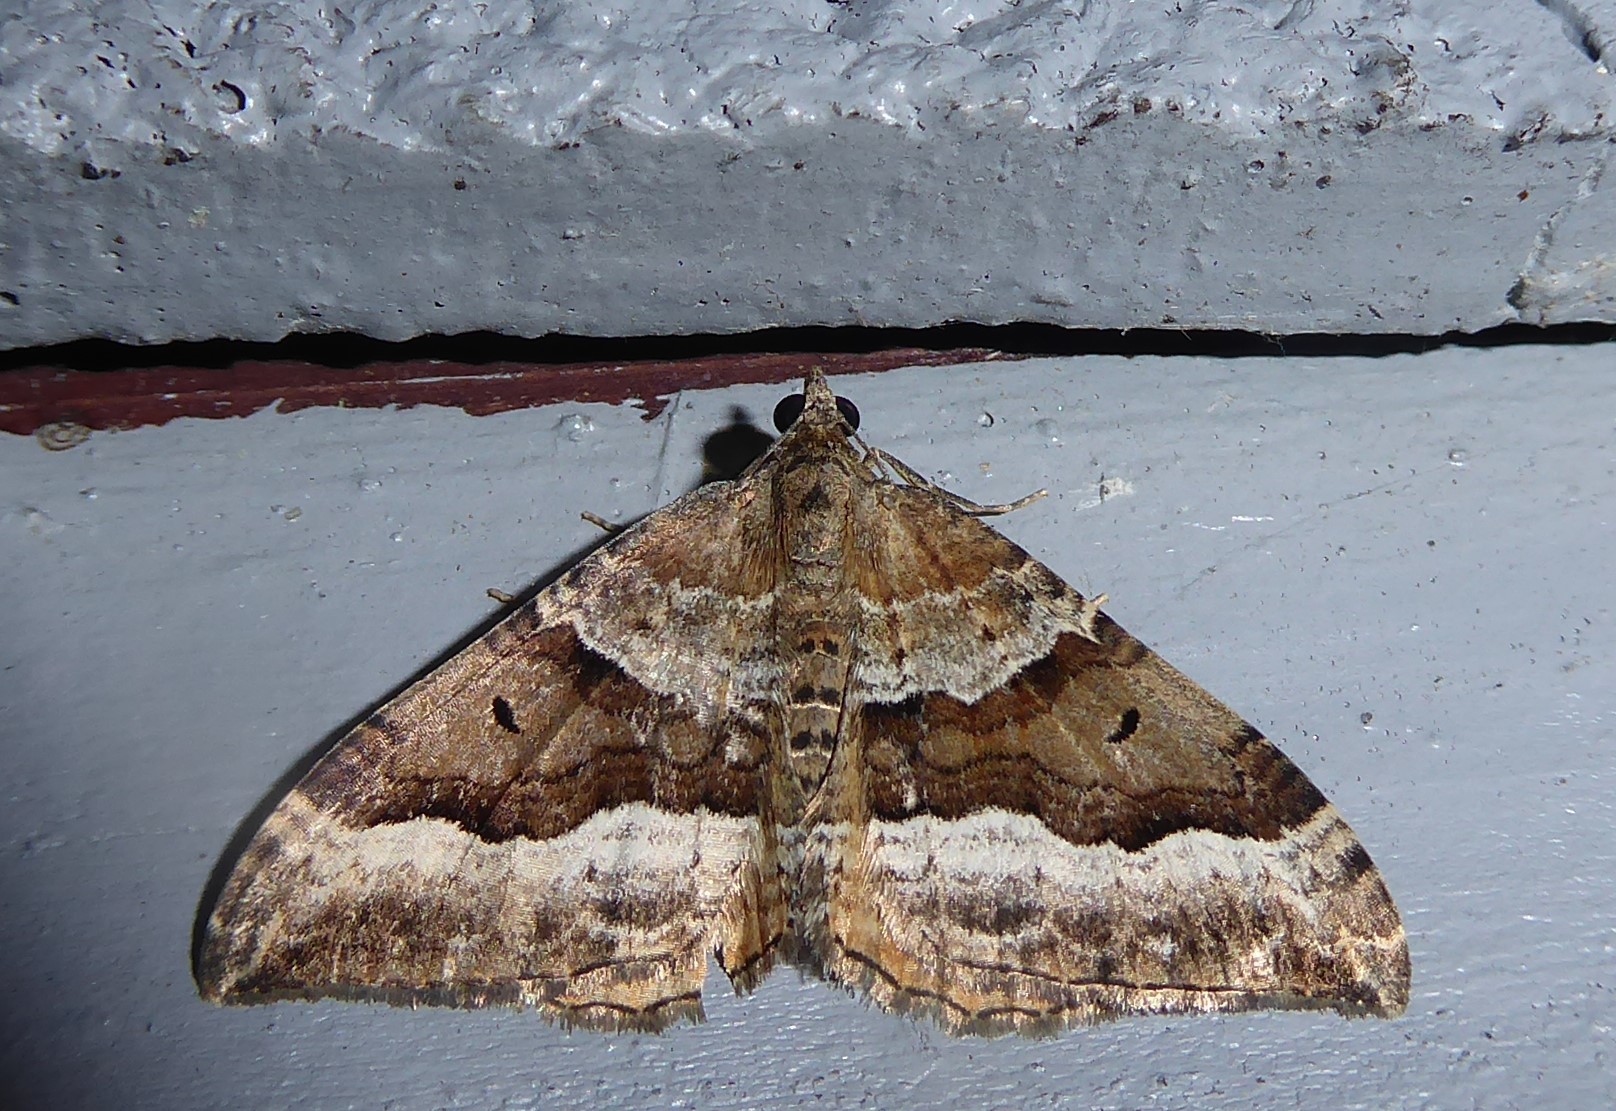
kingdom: Animalia
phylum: Arthropoda
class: Insecta
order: Lepidoptera
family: Geometridae
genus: Hydriomena
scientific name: Hydriomena deltoidata
